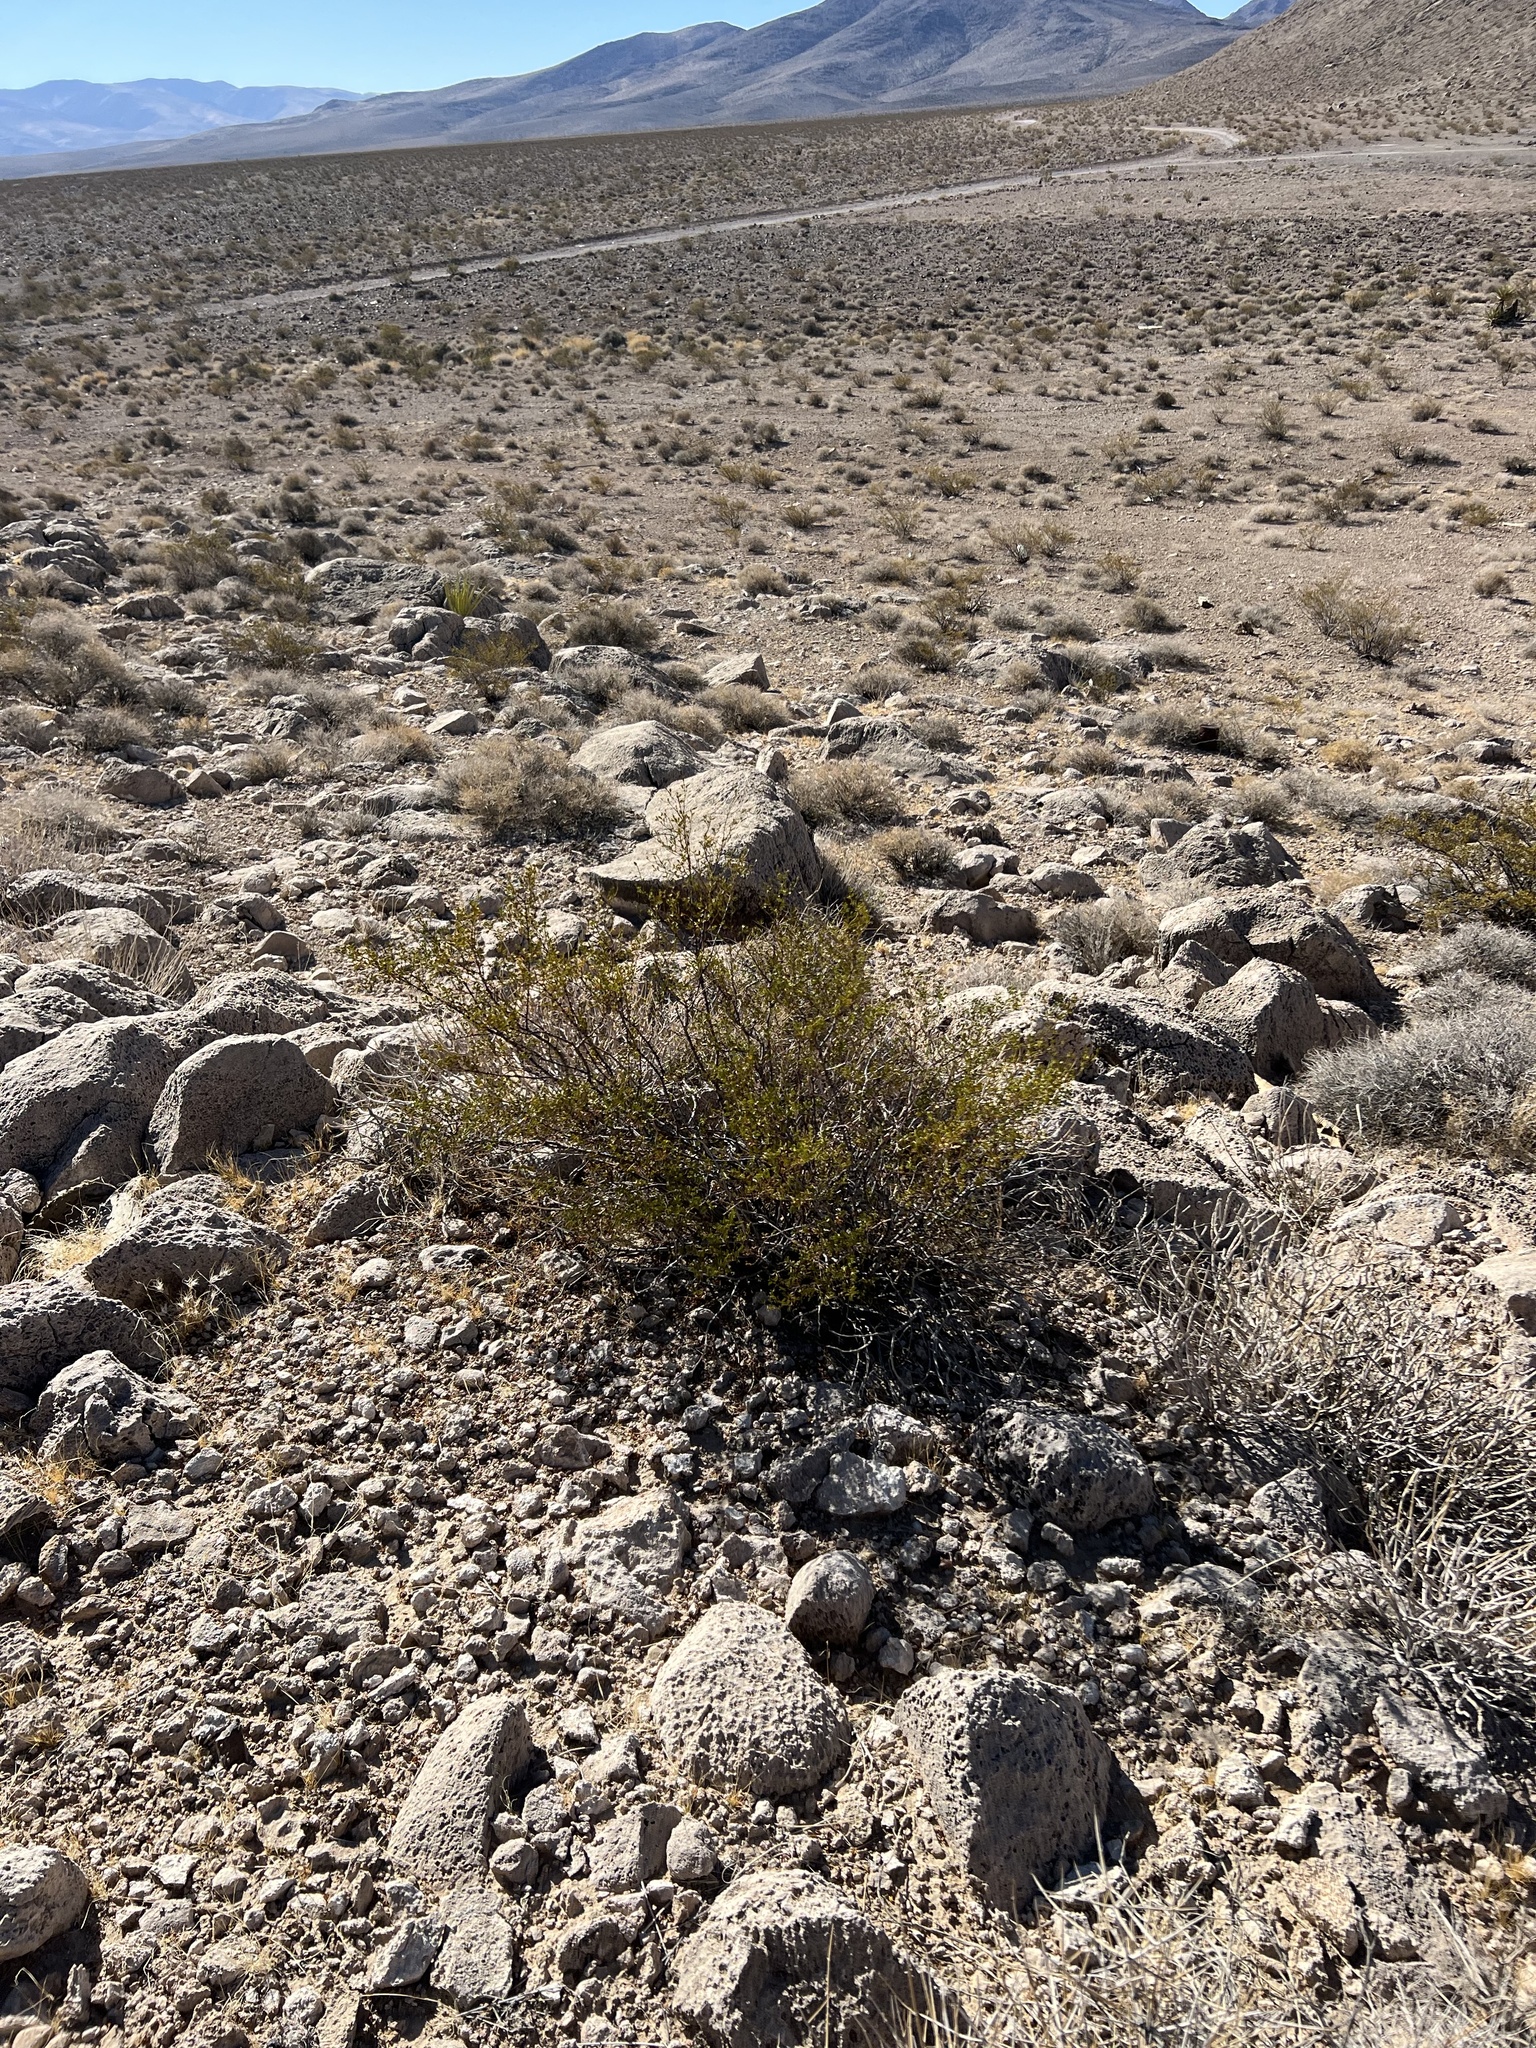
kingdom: Plantae
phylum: Tracheophyta
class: Magnoliopsida
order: Zygophyllales
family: Zygophyllaceae
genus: Larrea
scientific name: Larrea tridentata
